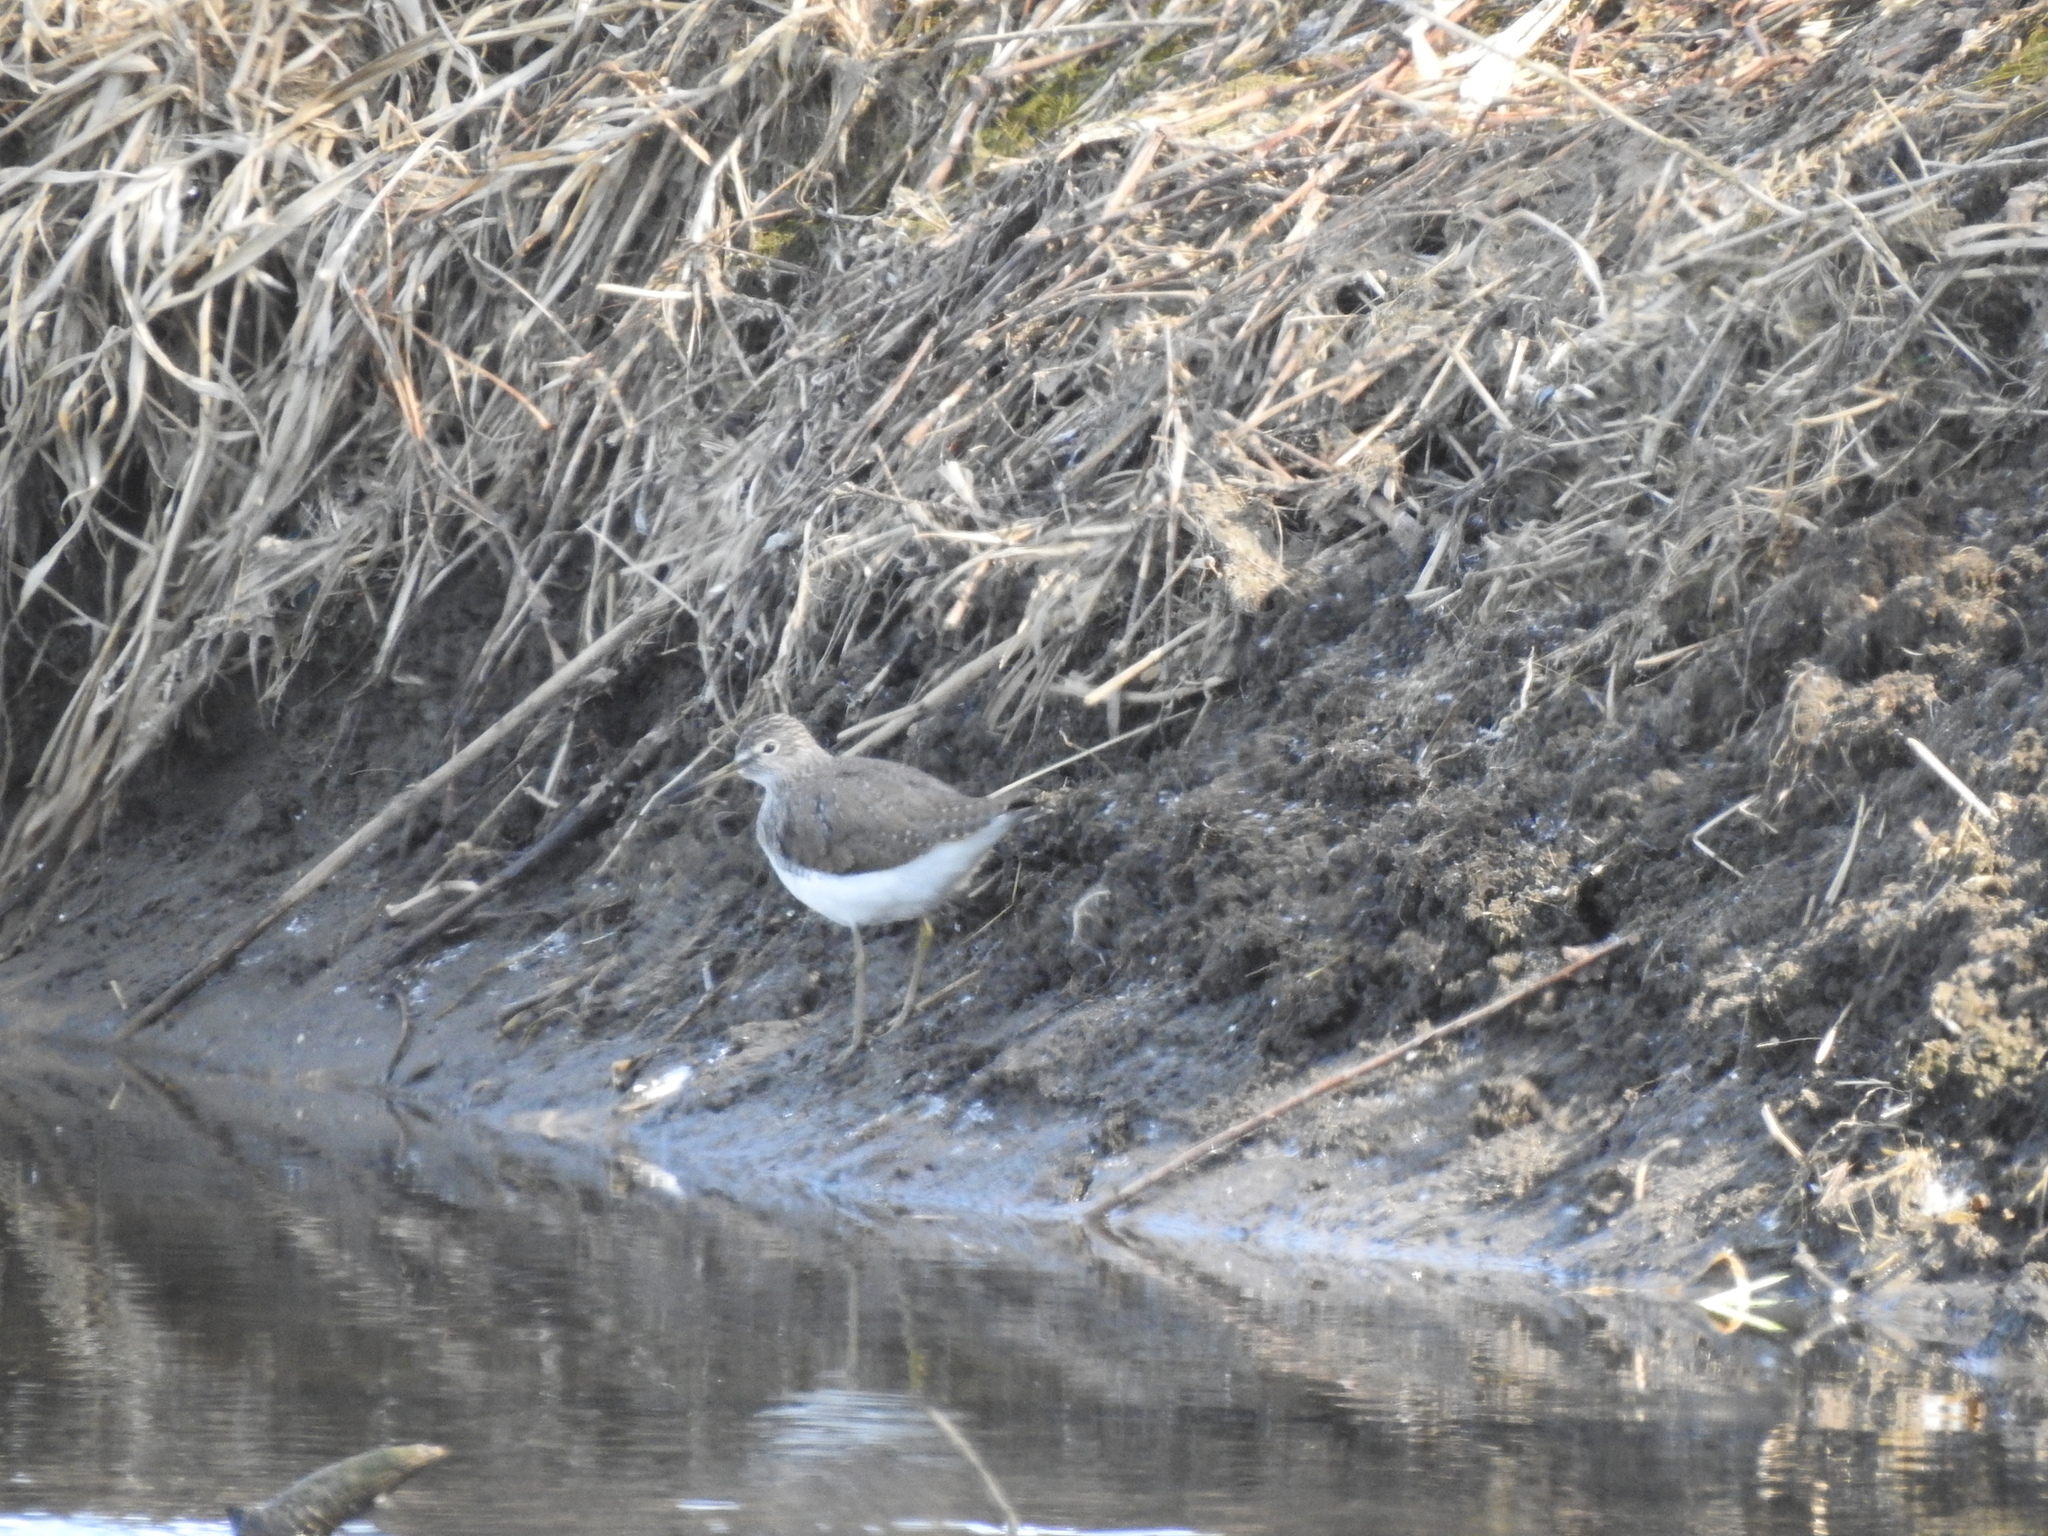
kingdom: Animalia
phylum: Chordata
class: Aves
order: Charadriiformes
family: Scolopacidae
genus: Tringa
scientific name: Tringa ochropus
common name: Green sandpiper
